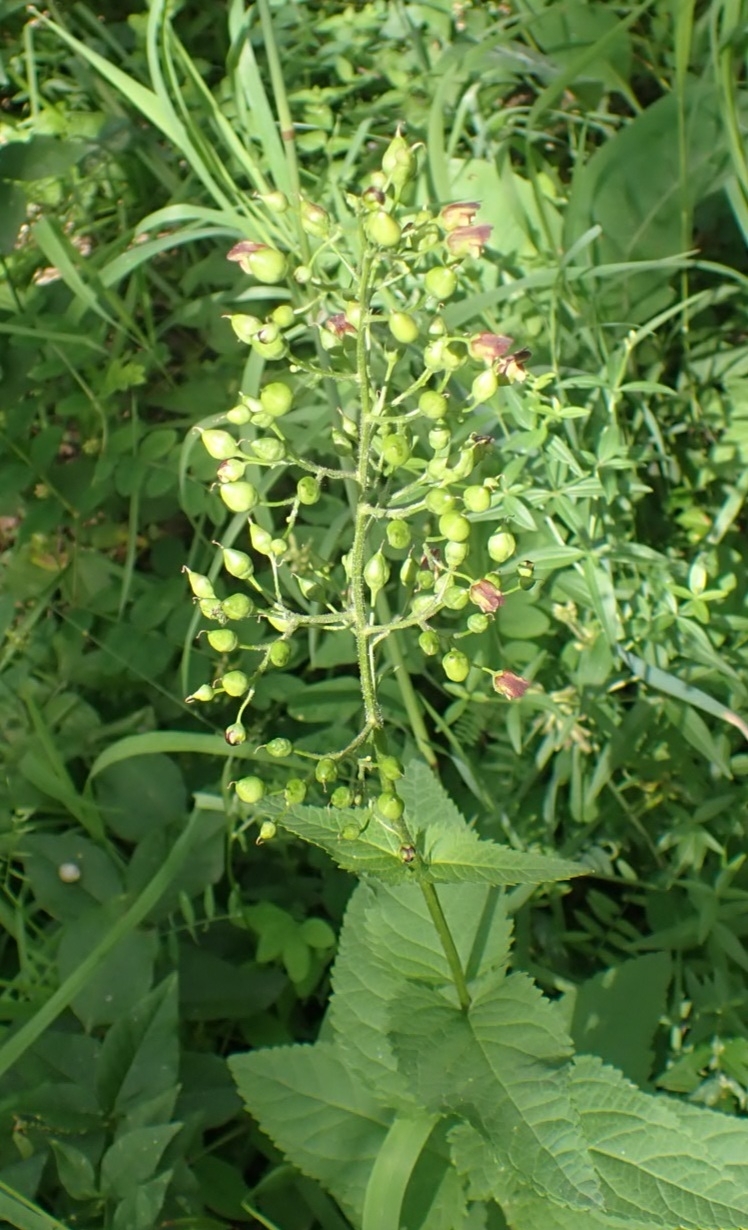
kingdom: Plantae
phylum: Tracheophyta
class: Magnoliopsida
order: Lamiales
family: Scrophulariaceae
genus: Scrophularia
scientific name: Scrophularia nodosa
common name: Common figwort
